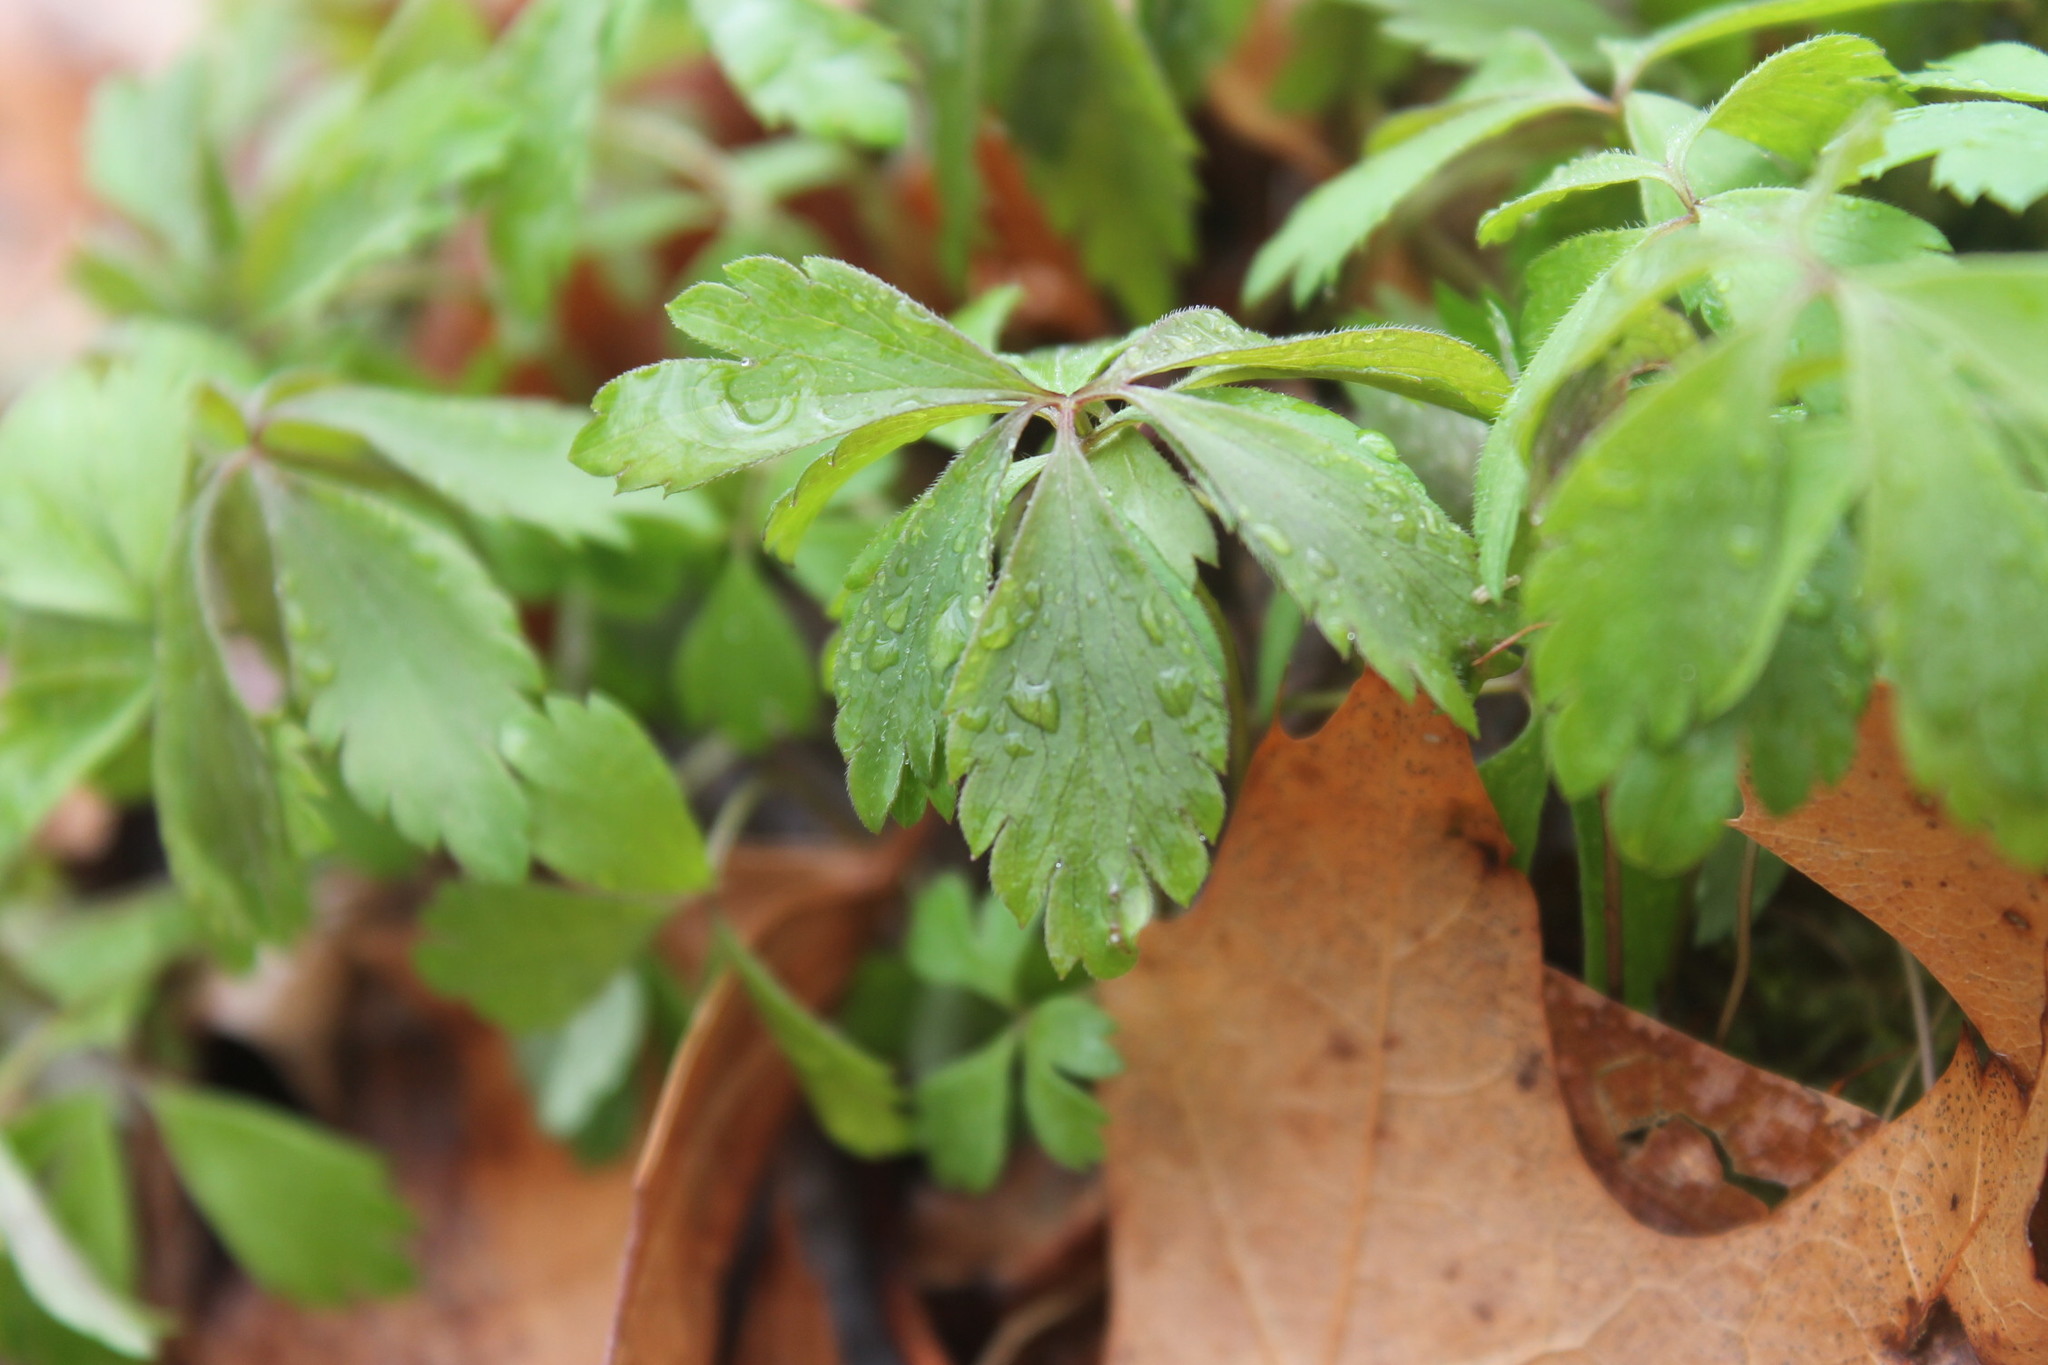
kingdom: Plantae
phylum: Tracheophyta
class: Magnoliopsida
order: Ranunculales
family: Ranunculaceae
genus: Anemone
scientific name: Anemone quinquefolia
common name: Wood anemone
